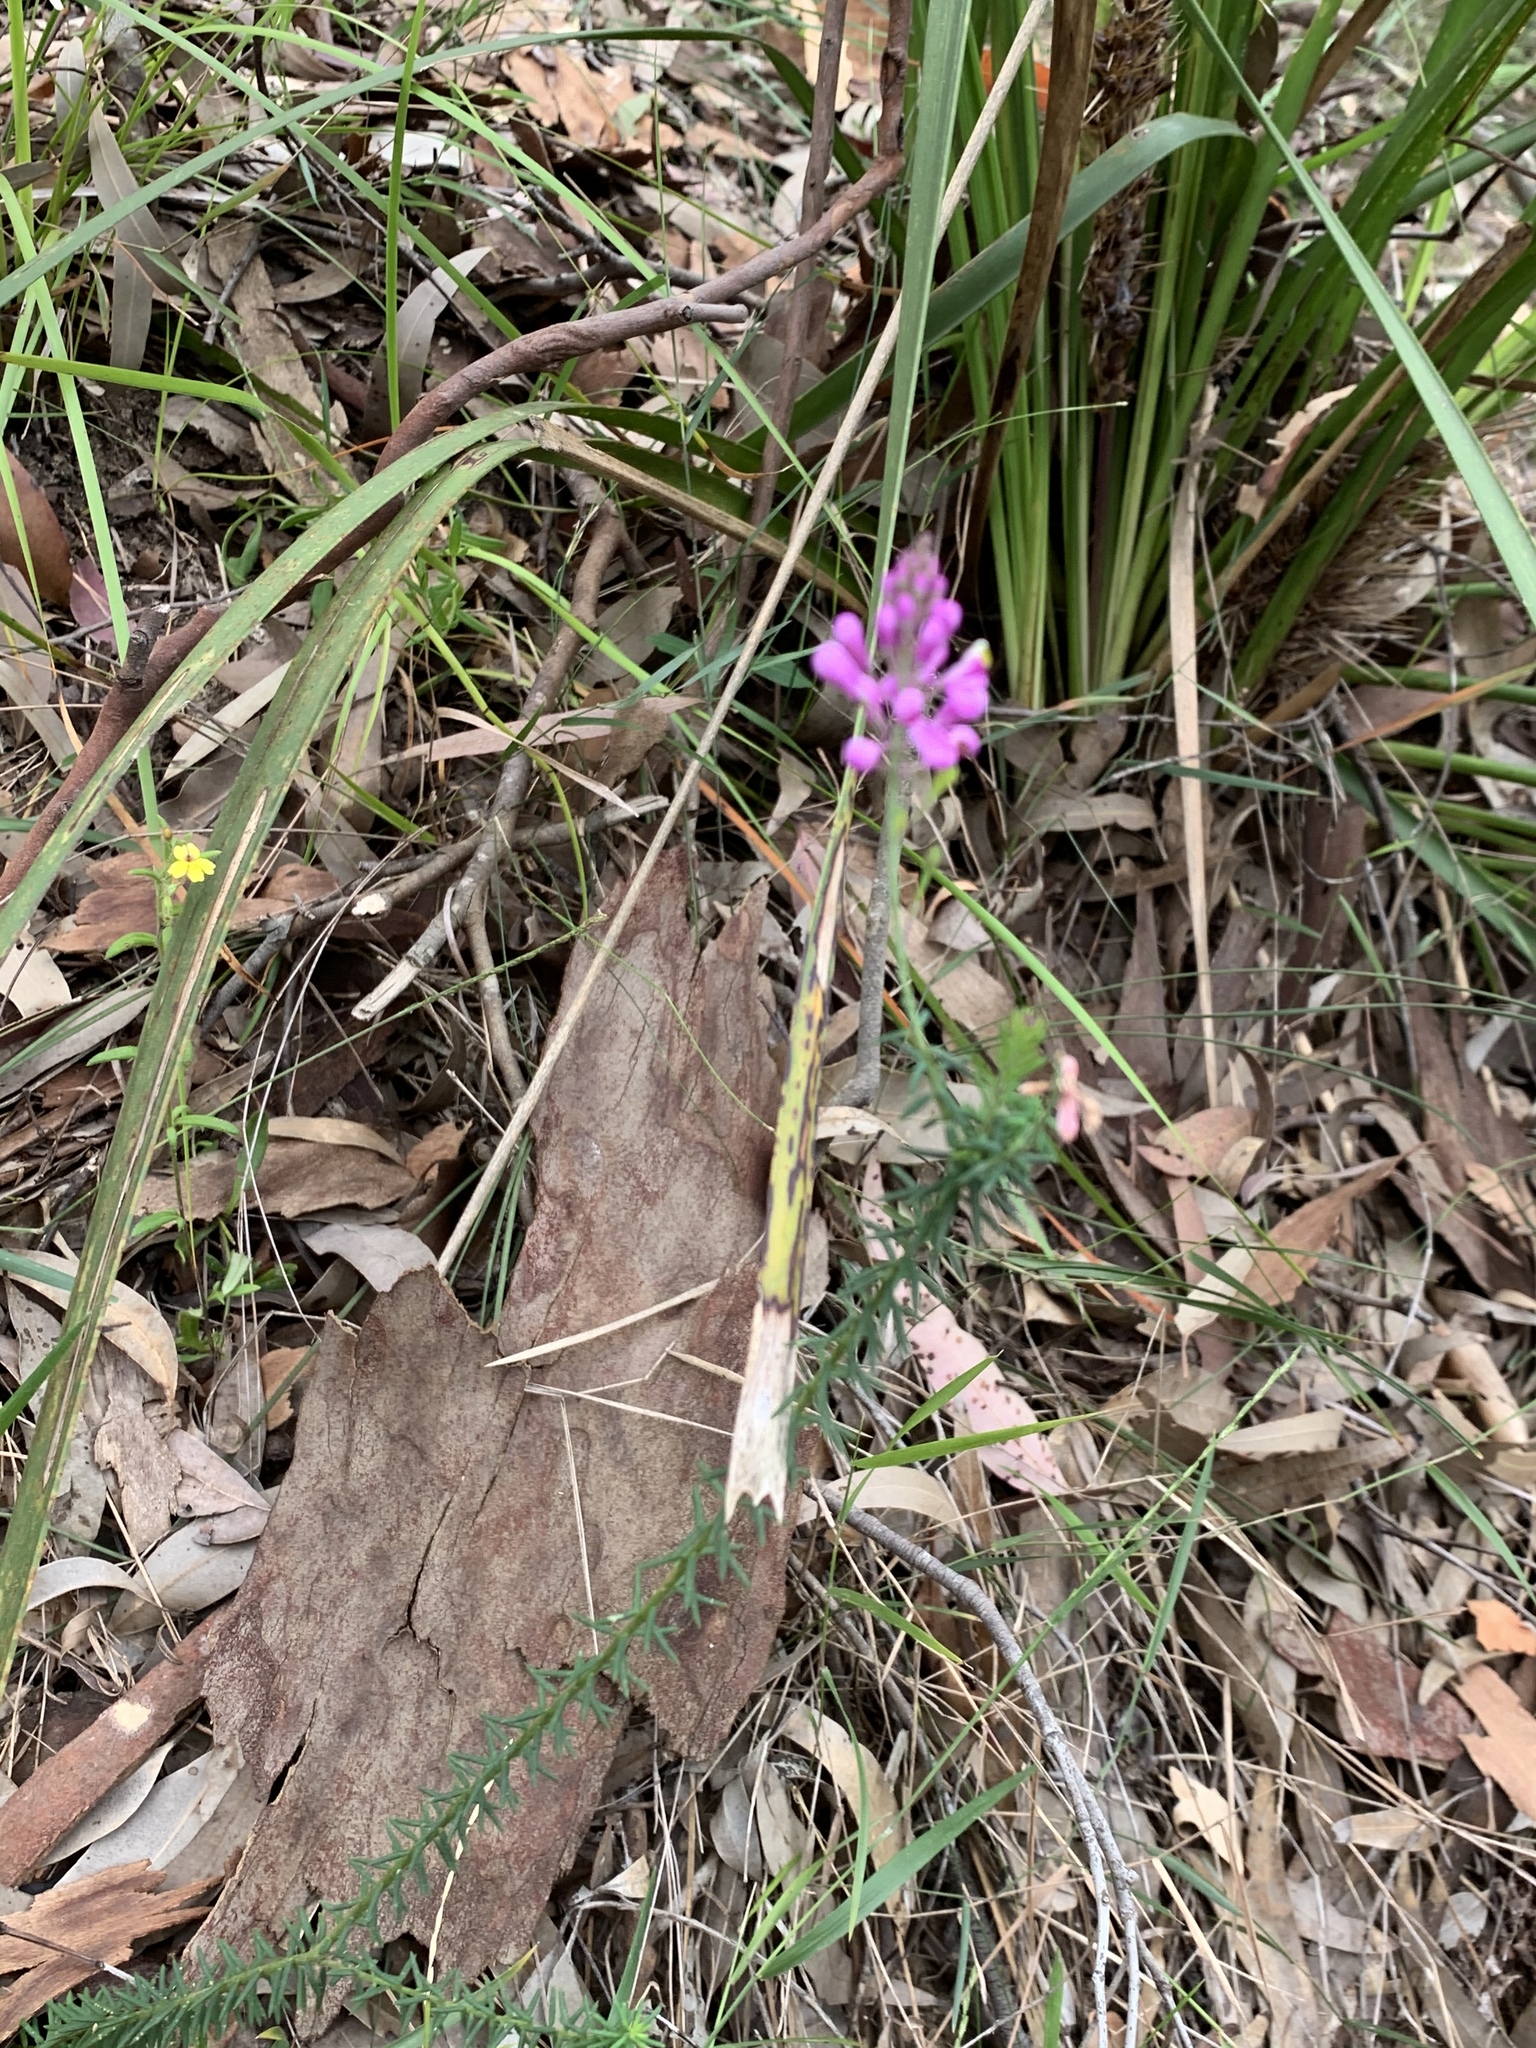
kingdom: Plantae
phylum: Tracheophyta
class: Magnoliopsida
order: Fabales
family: Polygalaceae
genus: Comesperma
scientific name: Comesperma ericinum
